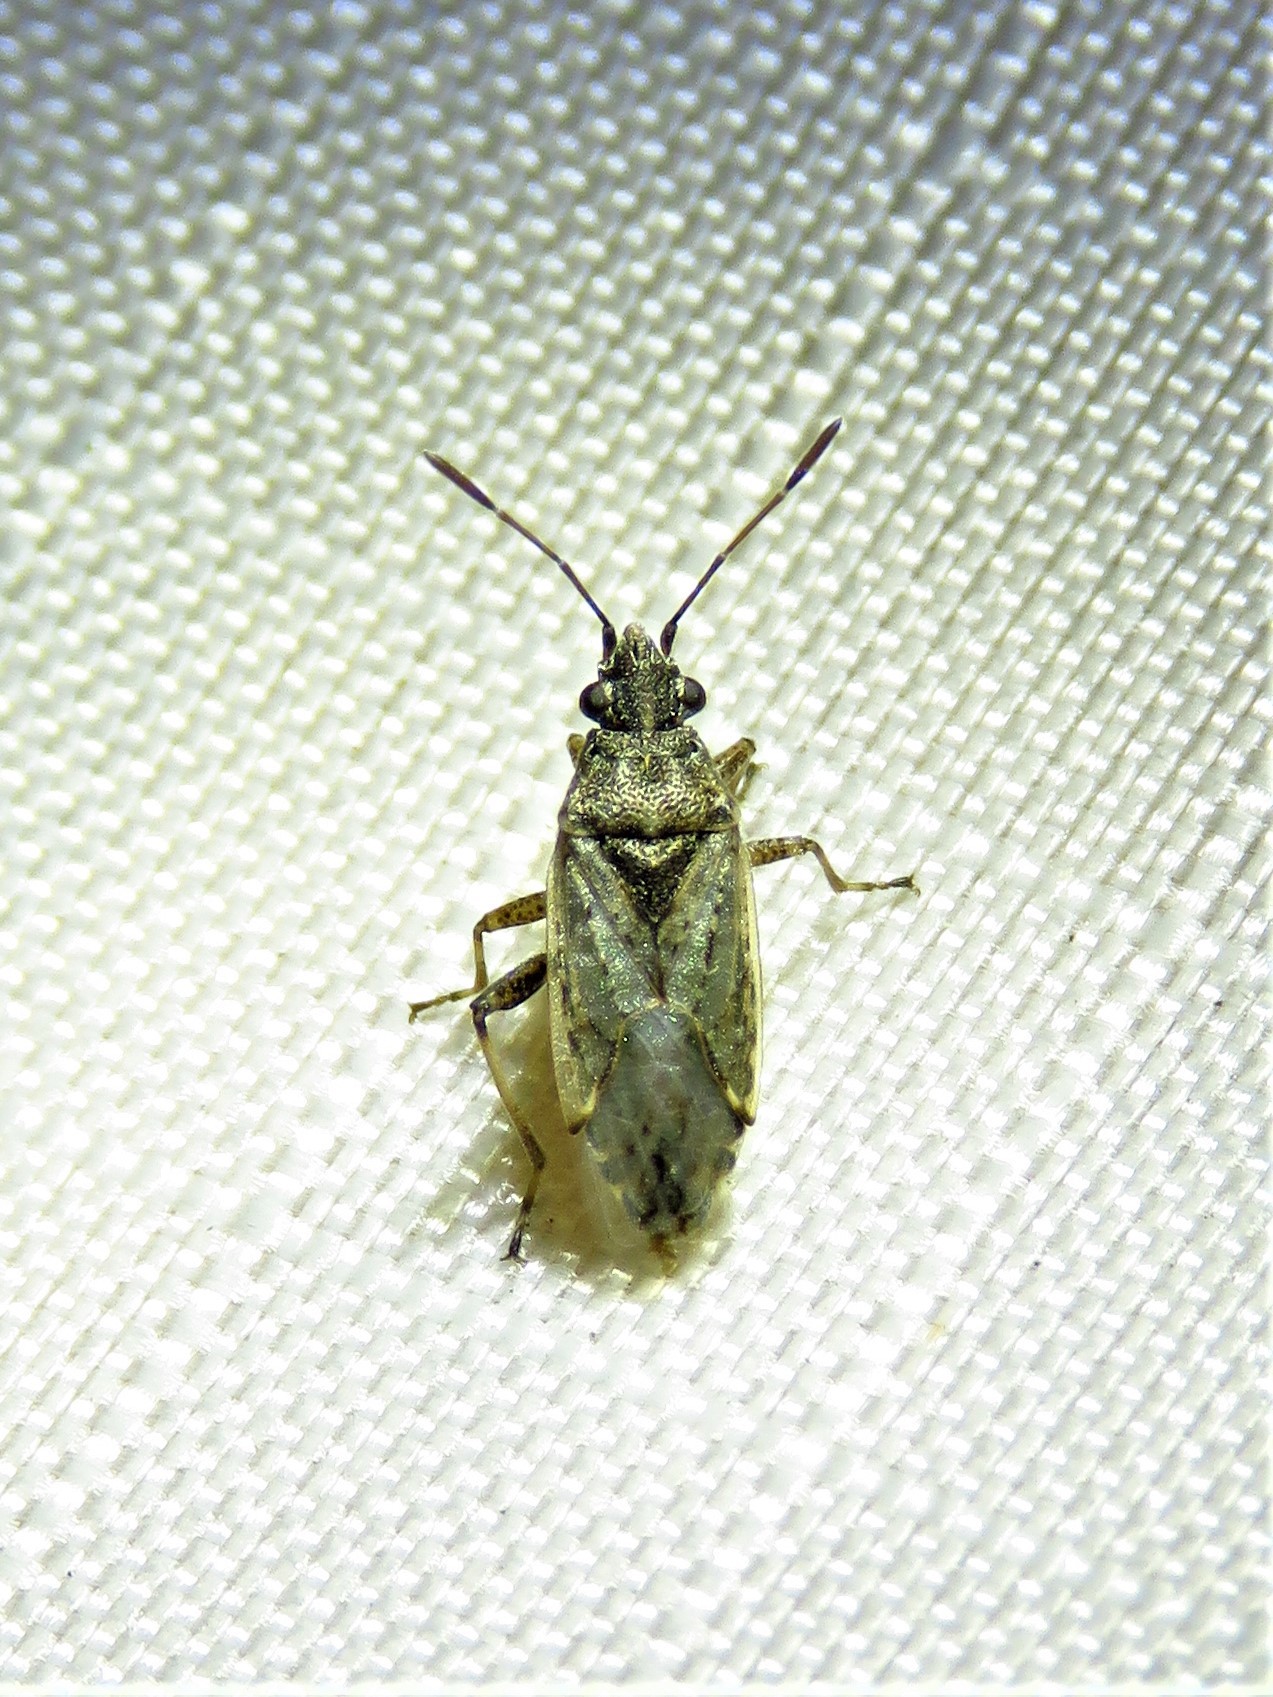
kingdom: Animalia
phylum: Arthropoda
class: Insecta
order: Hemiptera
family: Lygaeidae
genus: Xyonysius
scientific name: Xyonysius californicus
